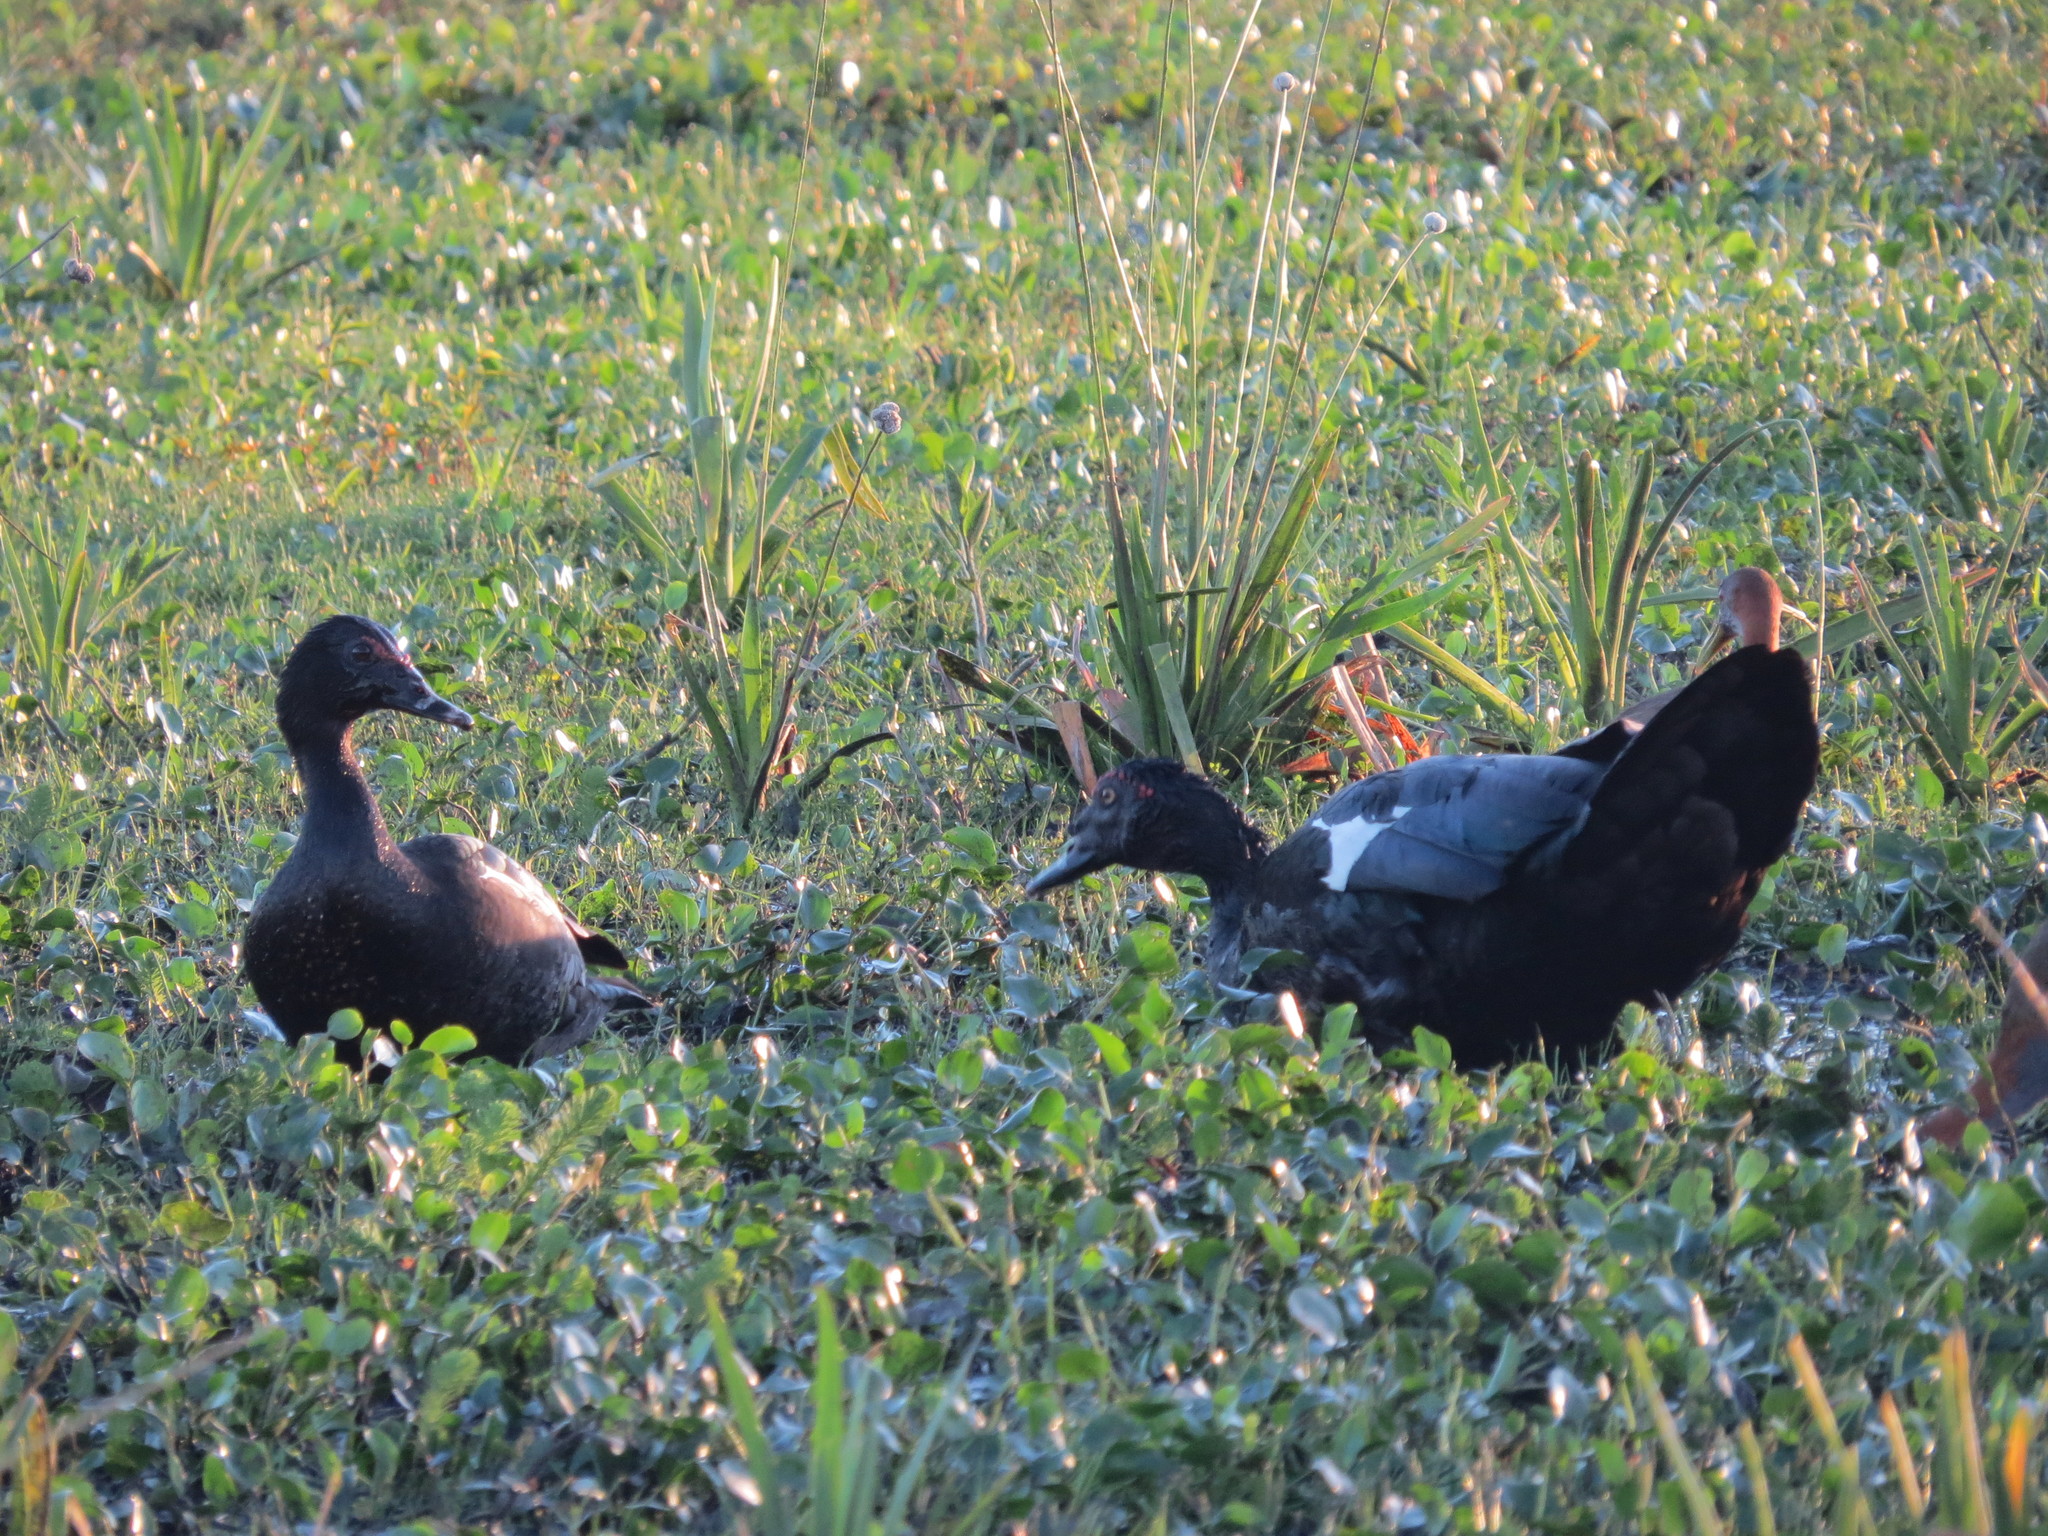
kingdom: Animalia
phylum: Chordata
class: Aves
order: Anseriformes
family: Anatidae
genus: Cairina
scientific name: Cairina moschata
